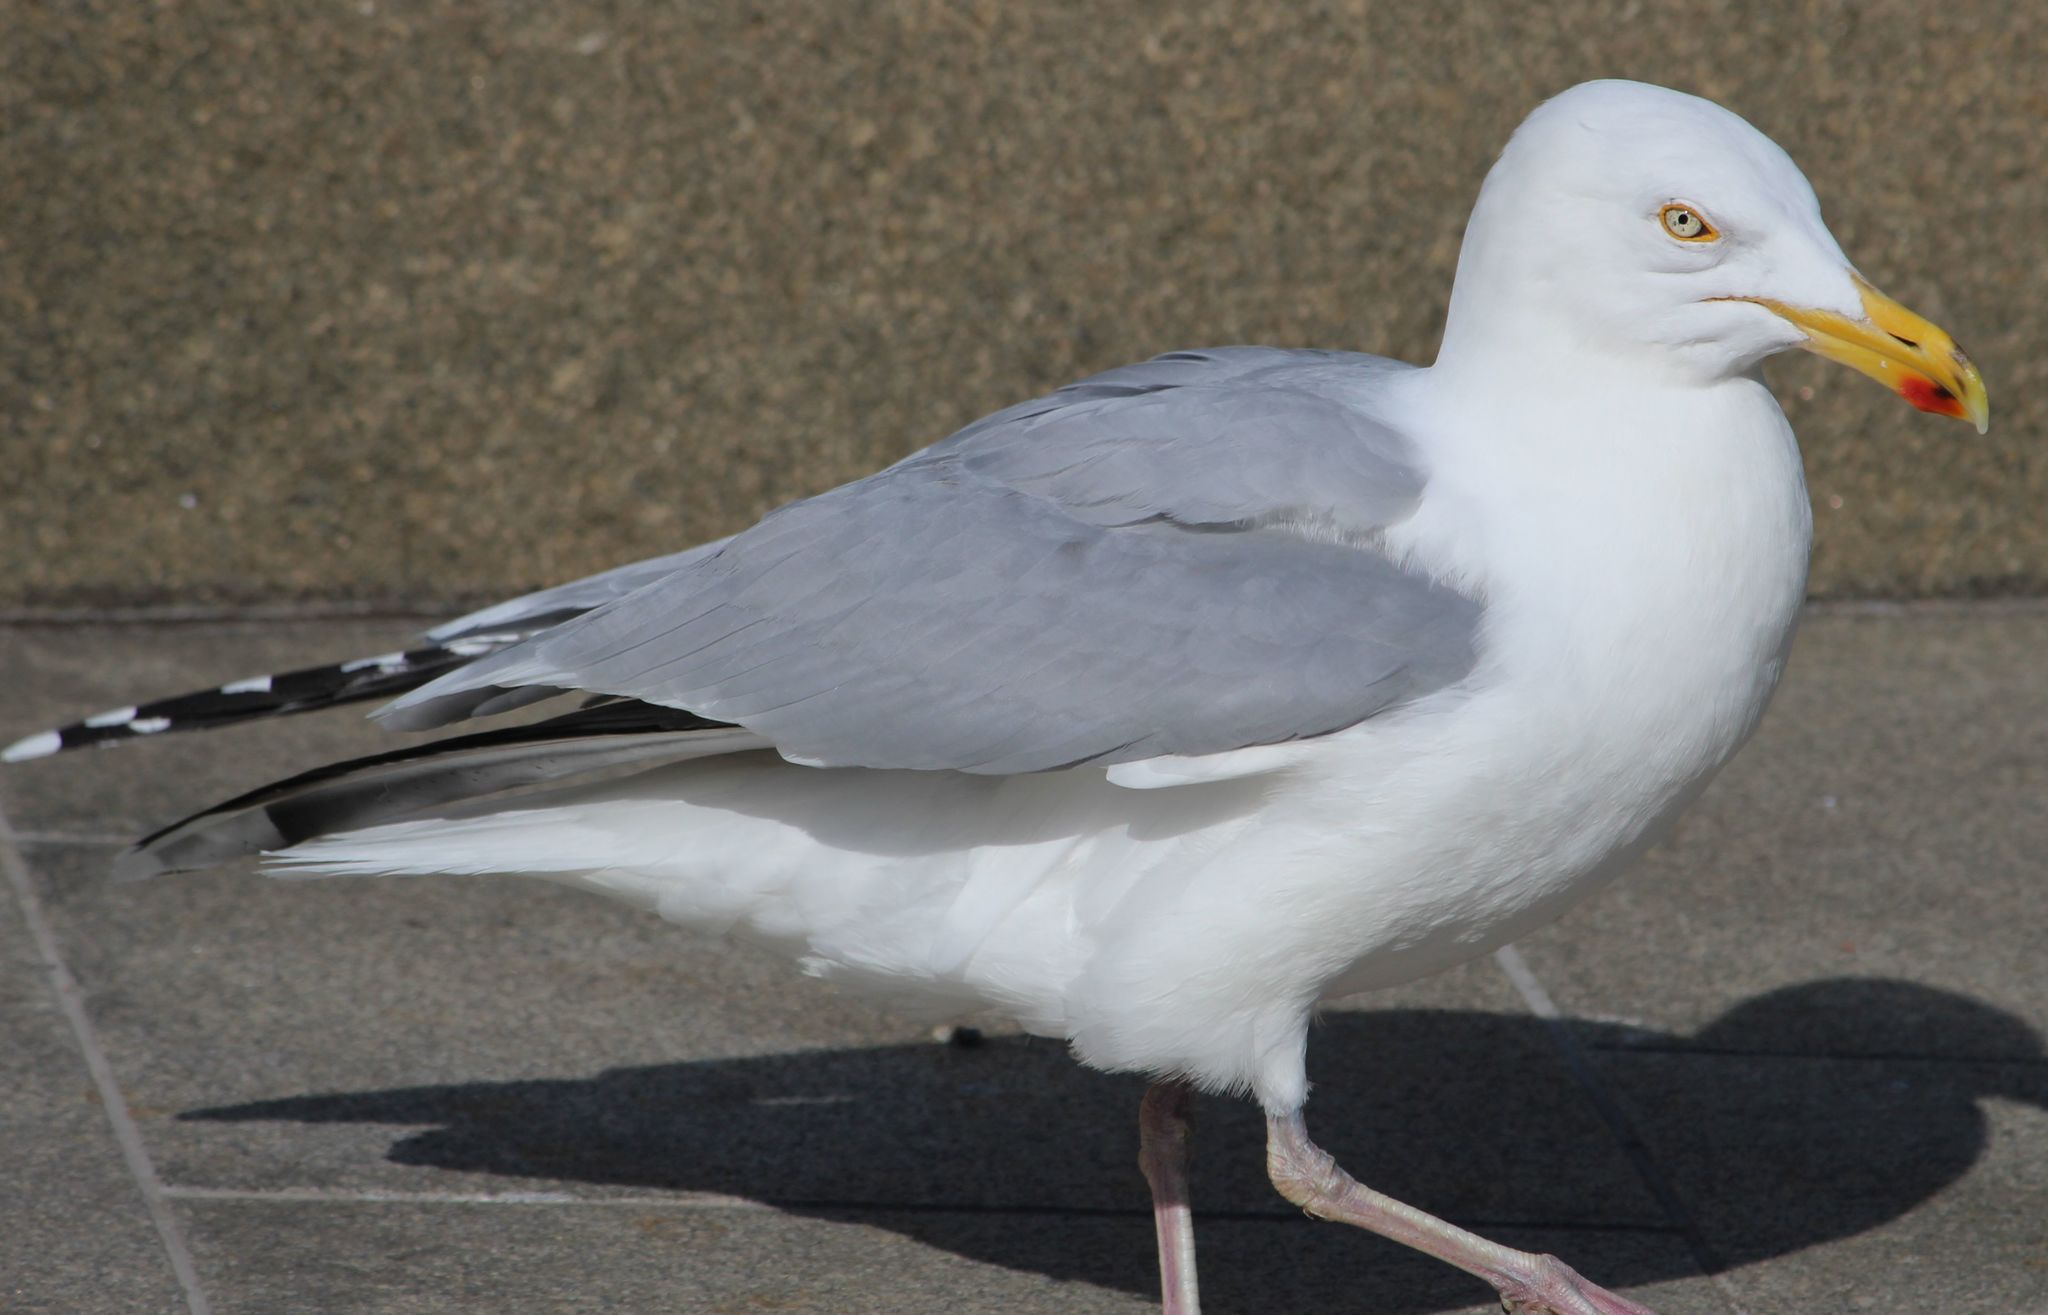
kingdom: Animalia
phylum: Chordata
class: Aves
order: Charadriiformes
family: Laridae
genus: Larus
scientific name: Larus argentatus
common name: Herring gull
